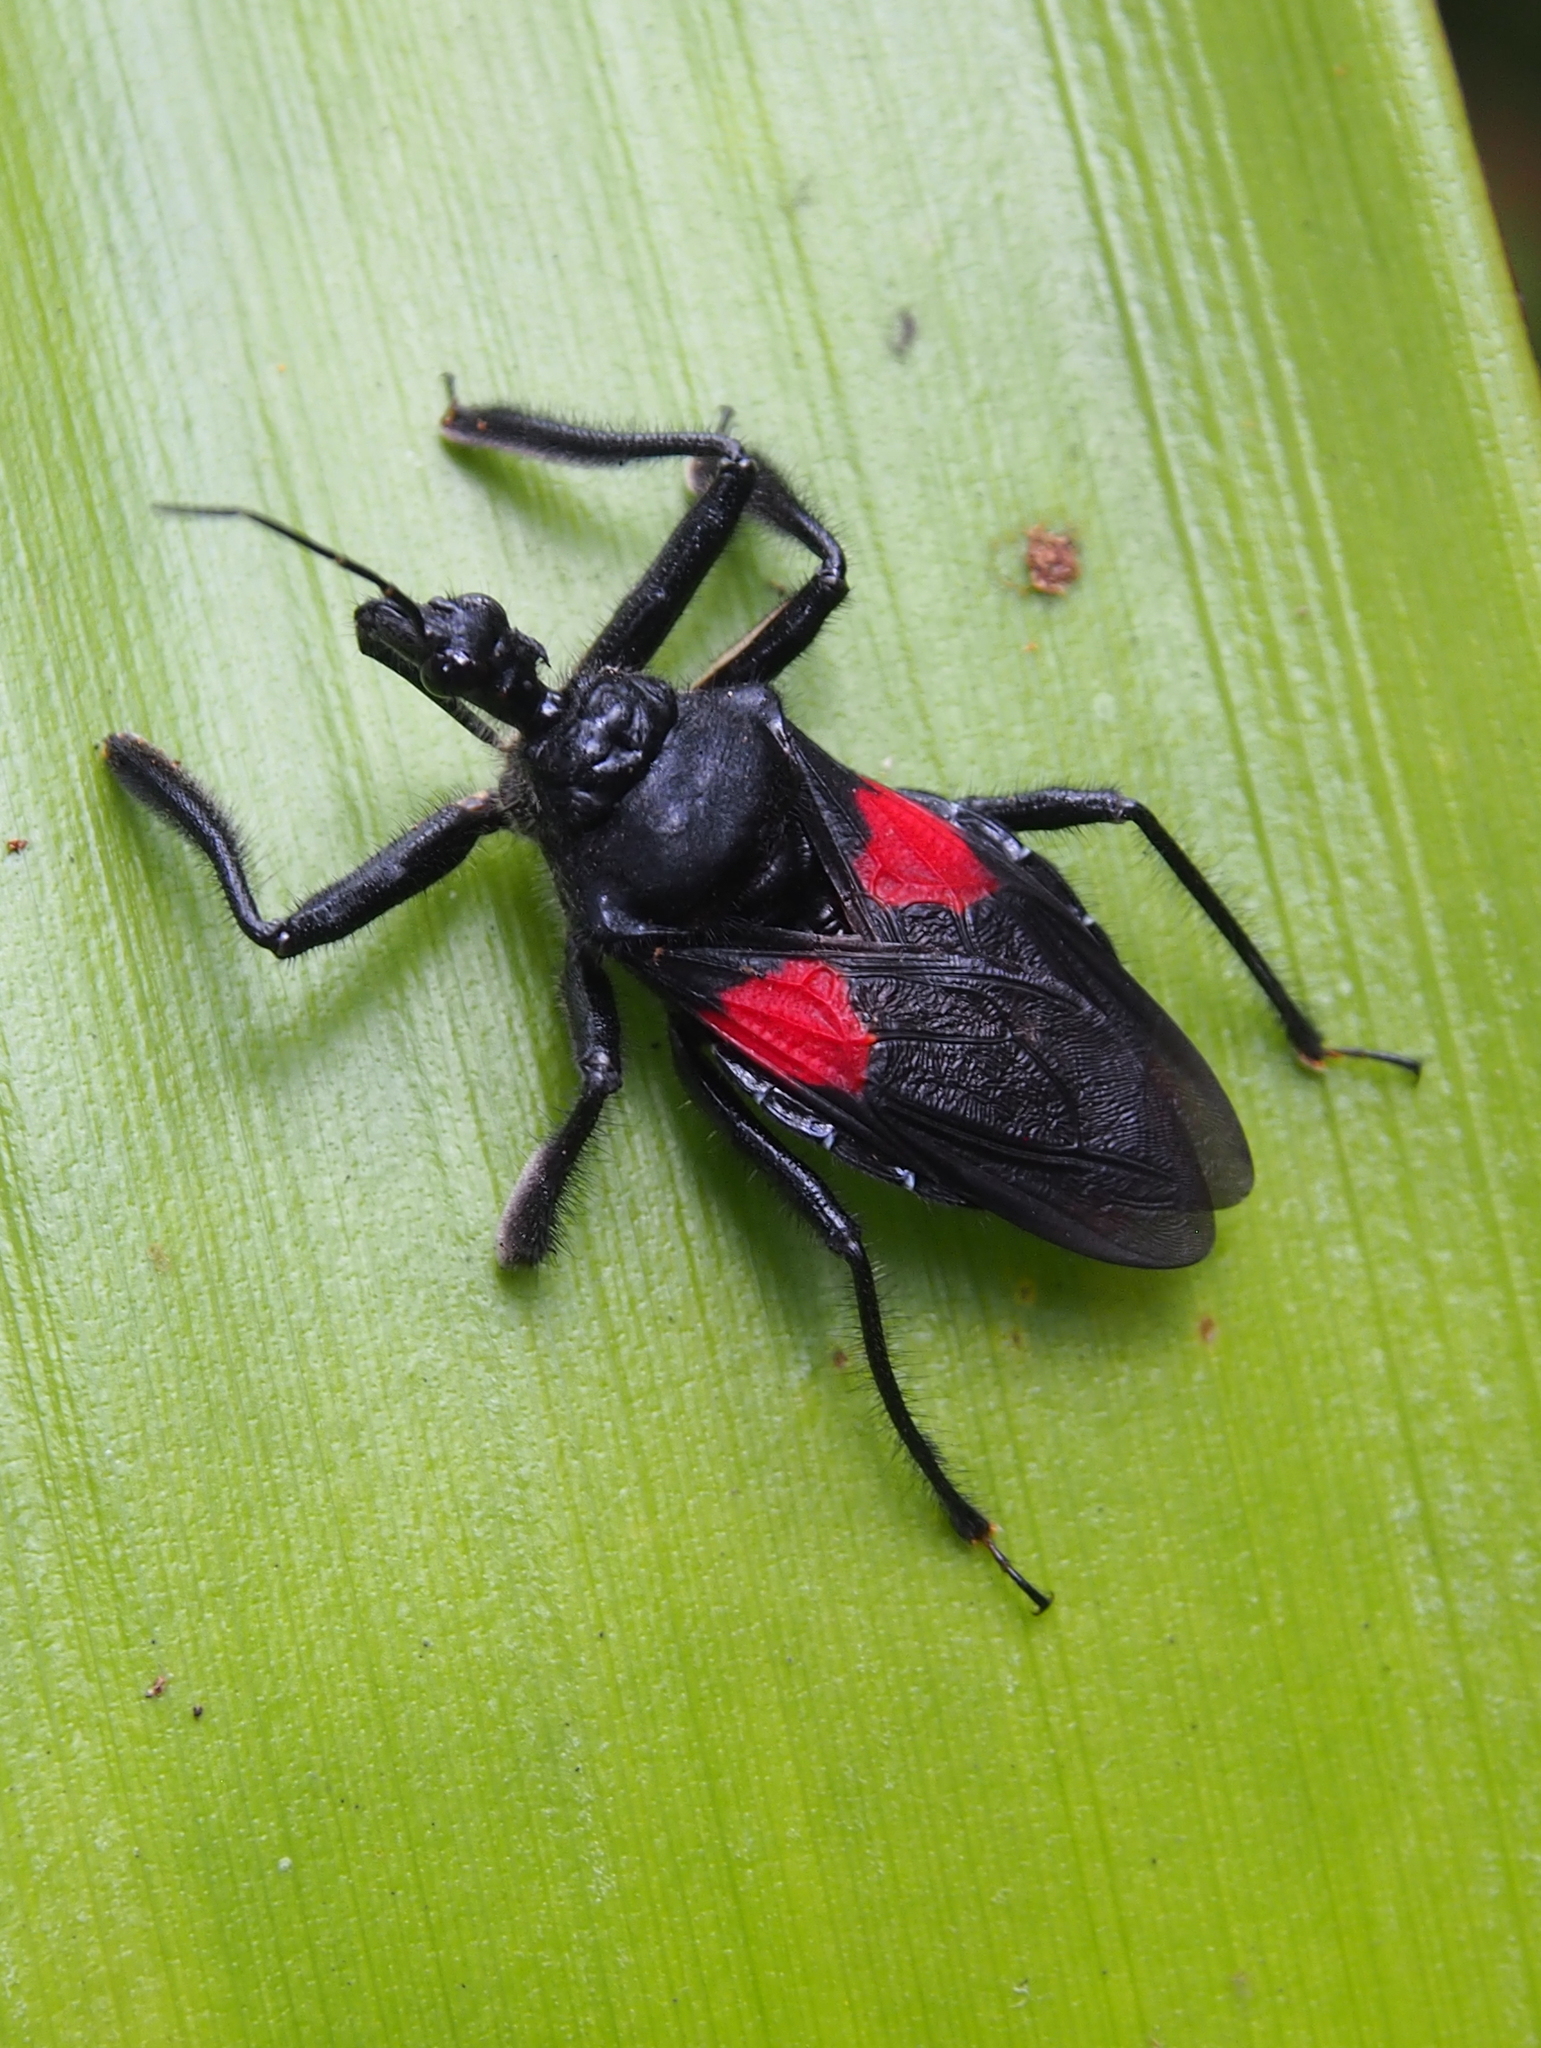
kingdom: Animalia
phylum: Arthropoda
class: Insecta
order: Hemiptera
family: Reduviidae
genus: Apiomerus
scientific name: Apiomerus hirtipes
